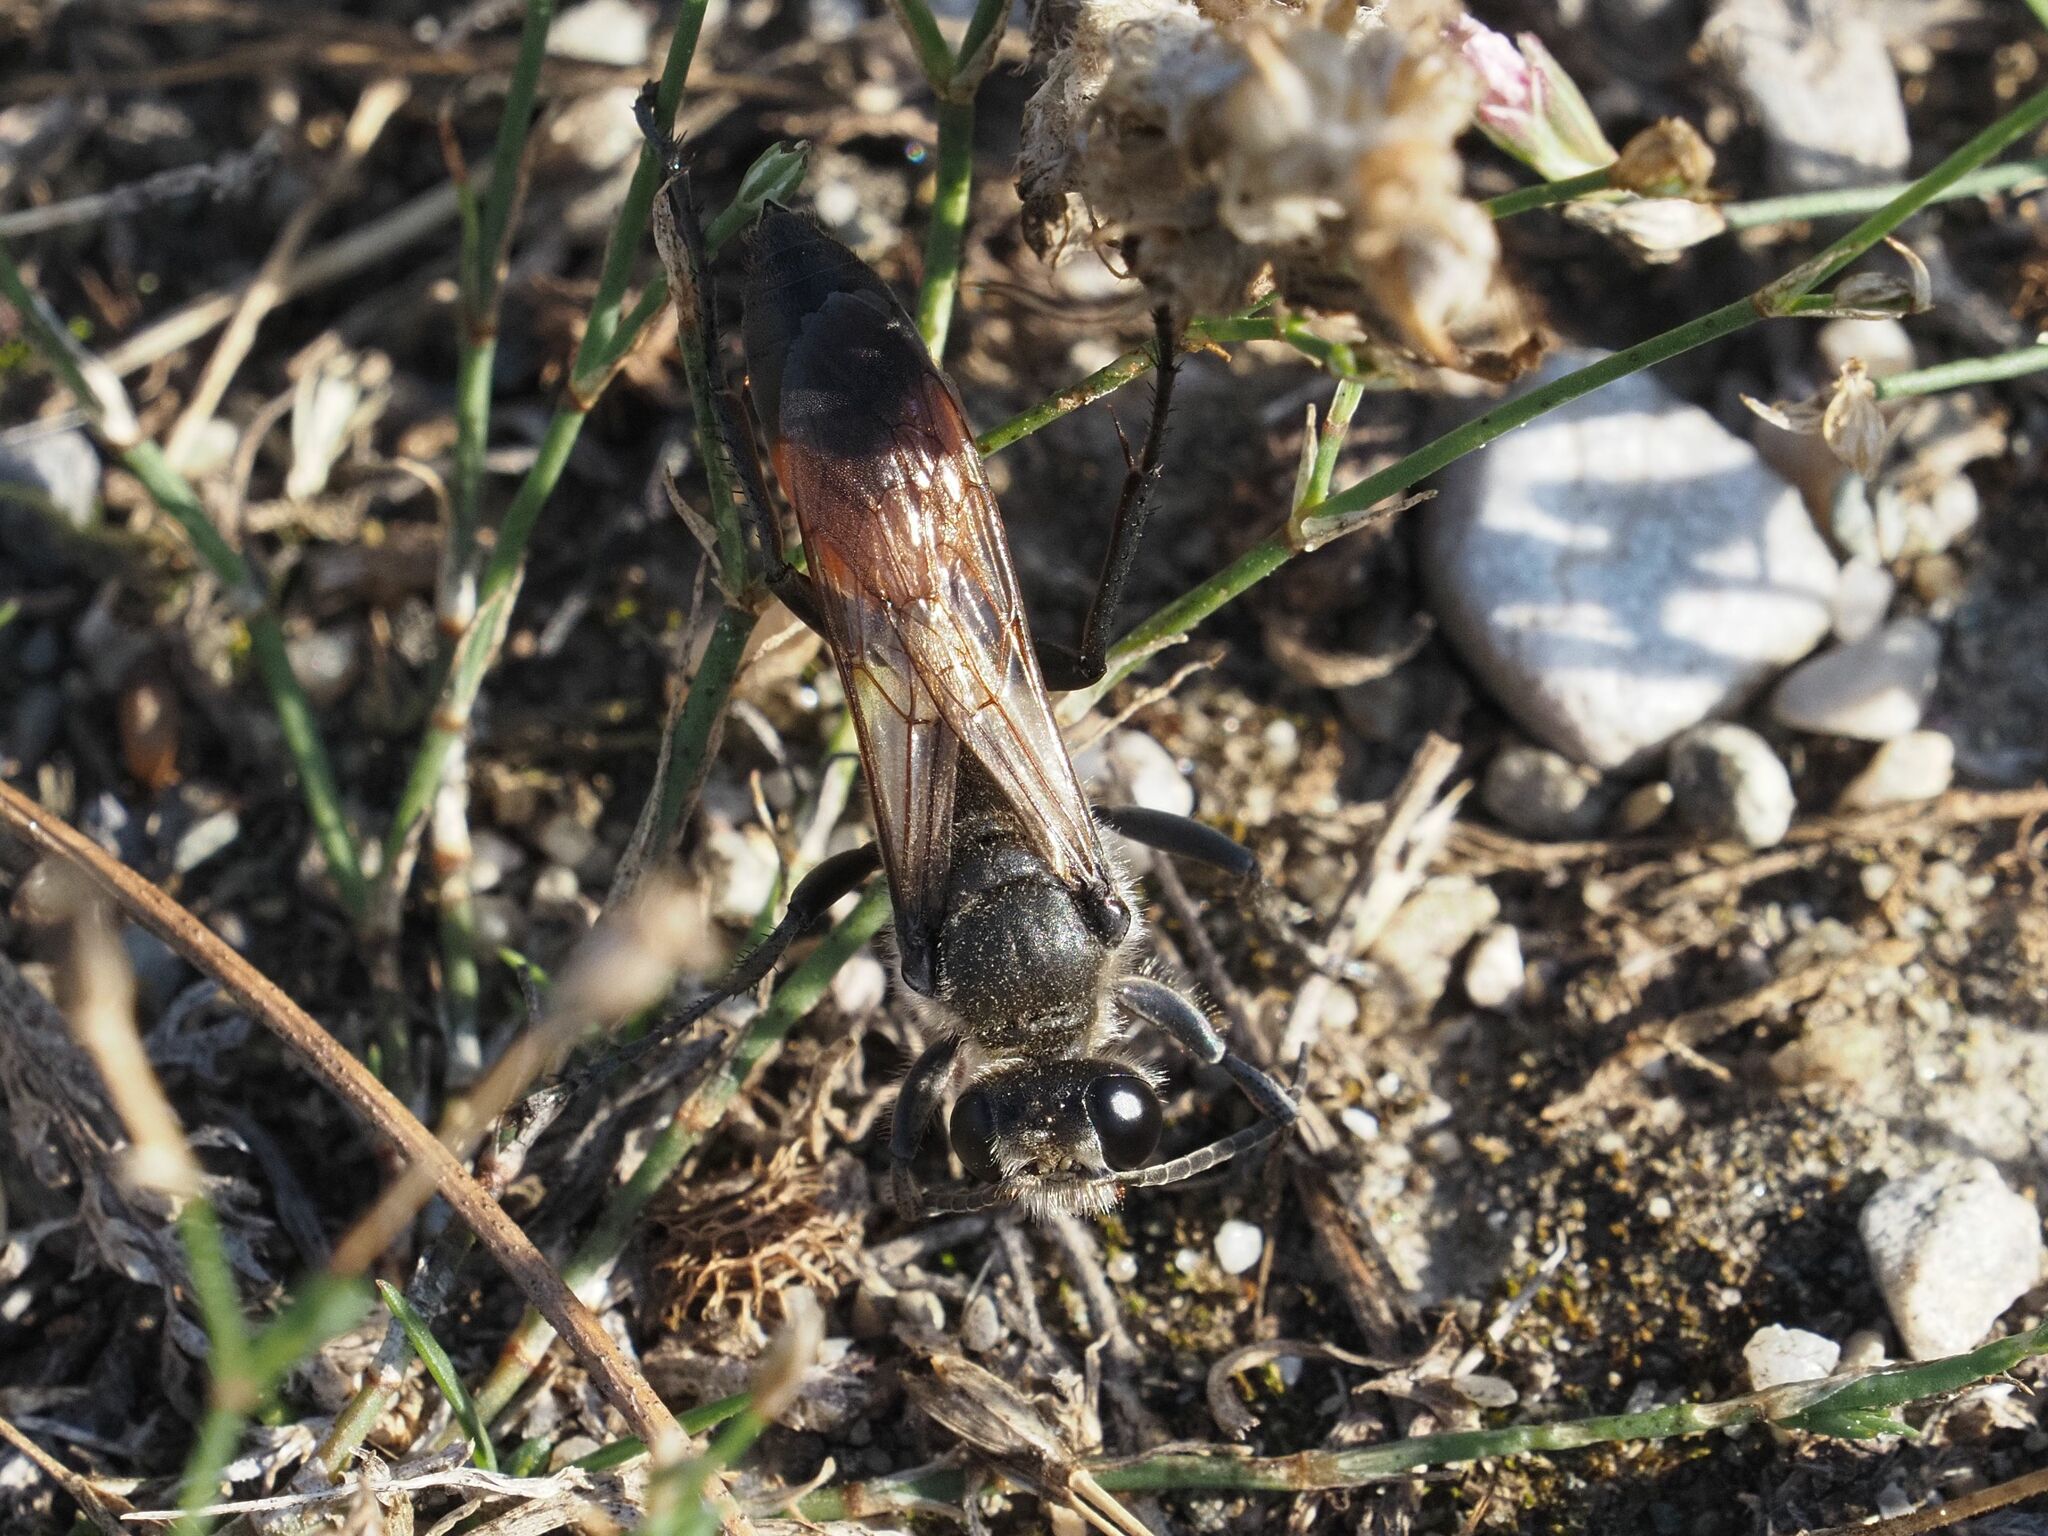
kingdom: Animalia
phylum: Arthropoda
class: Insecta
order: Hymenoptera
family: Sphecidae
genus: Sphex
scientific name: Sphex funerarius
